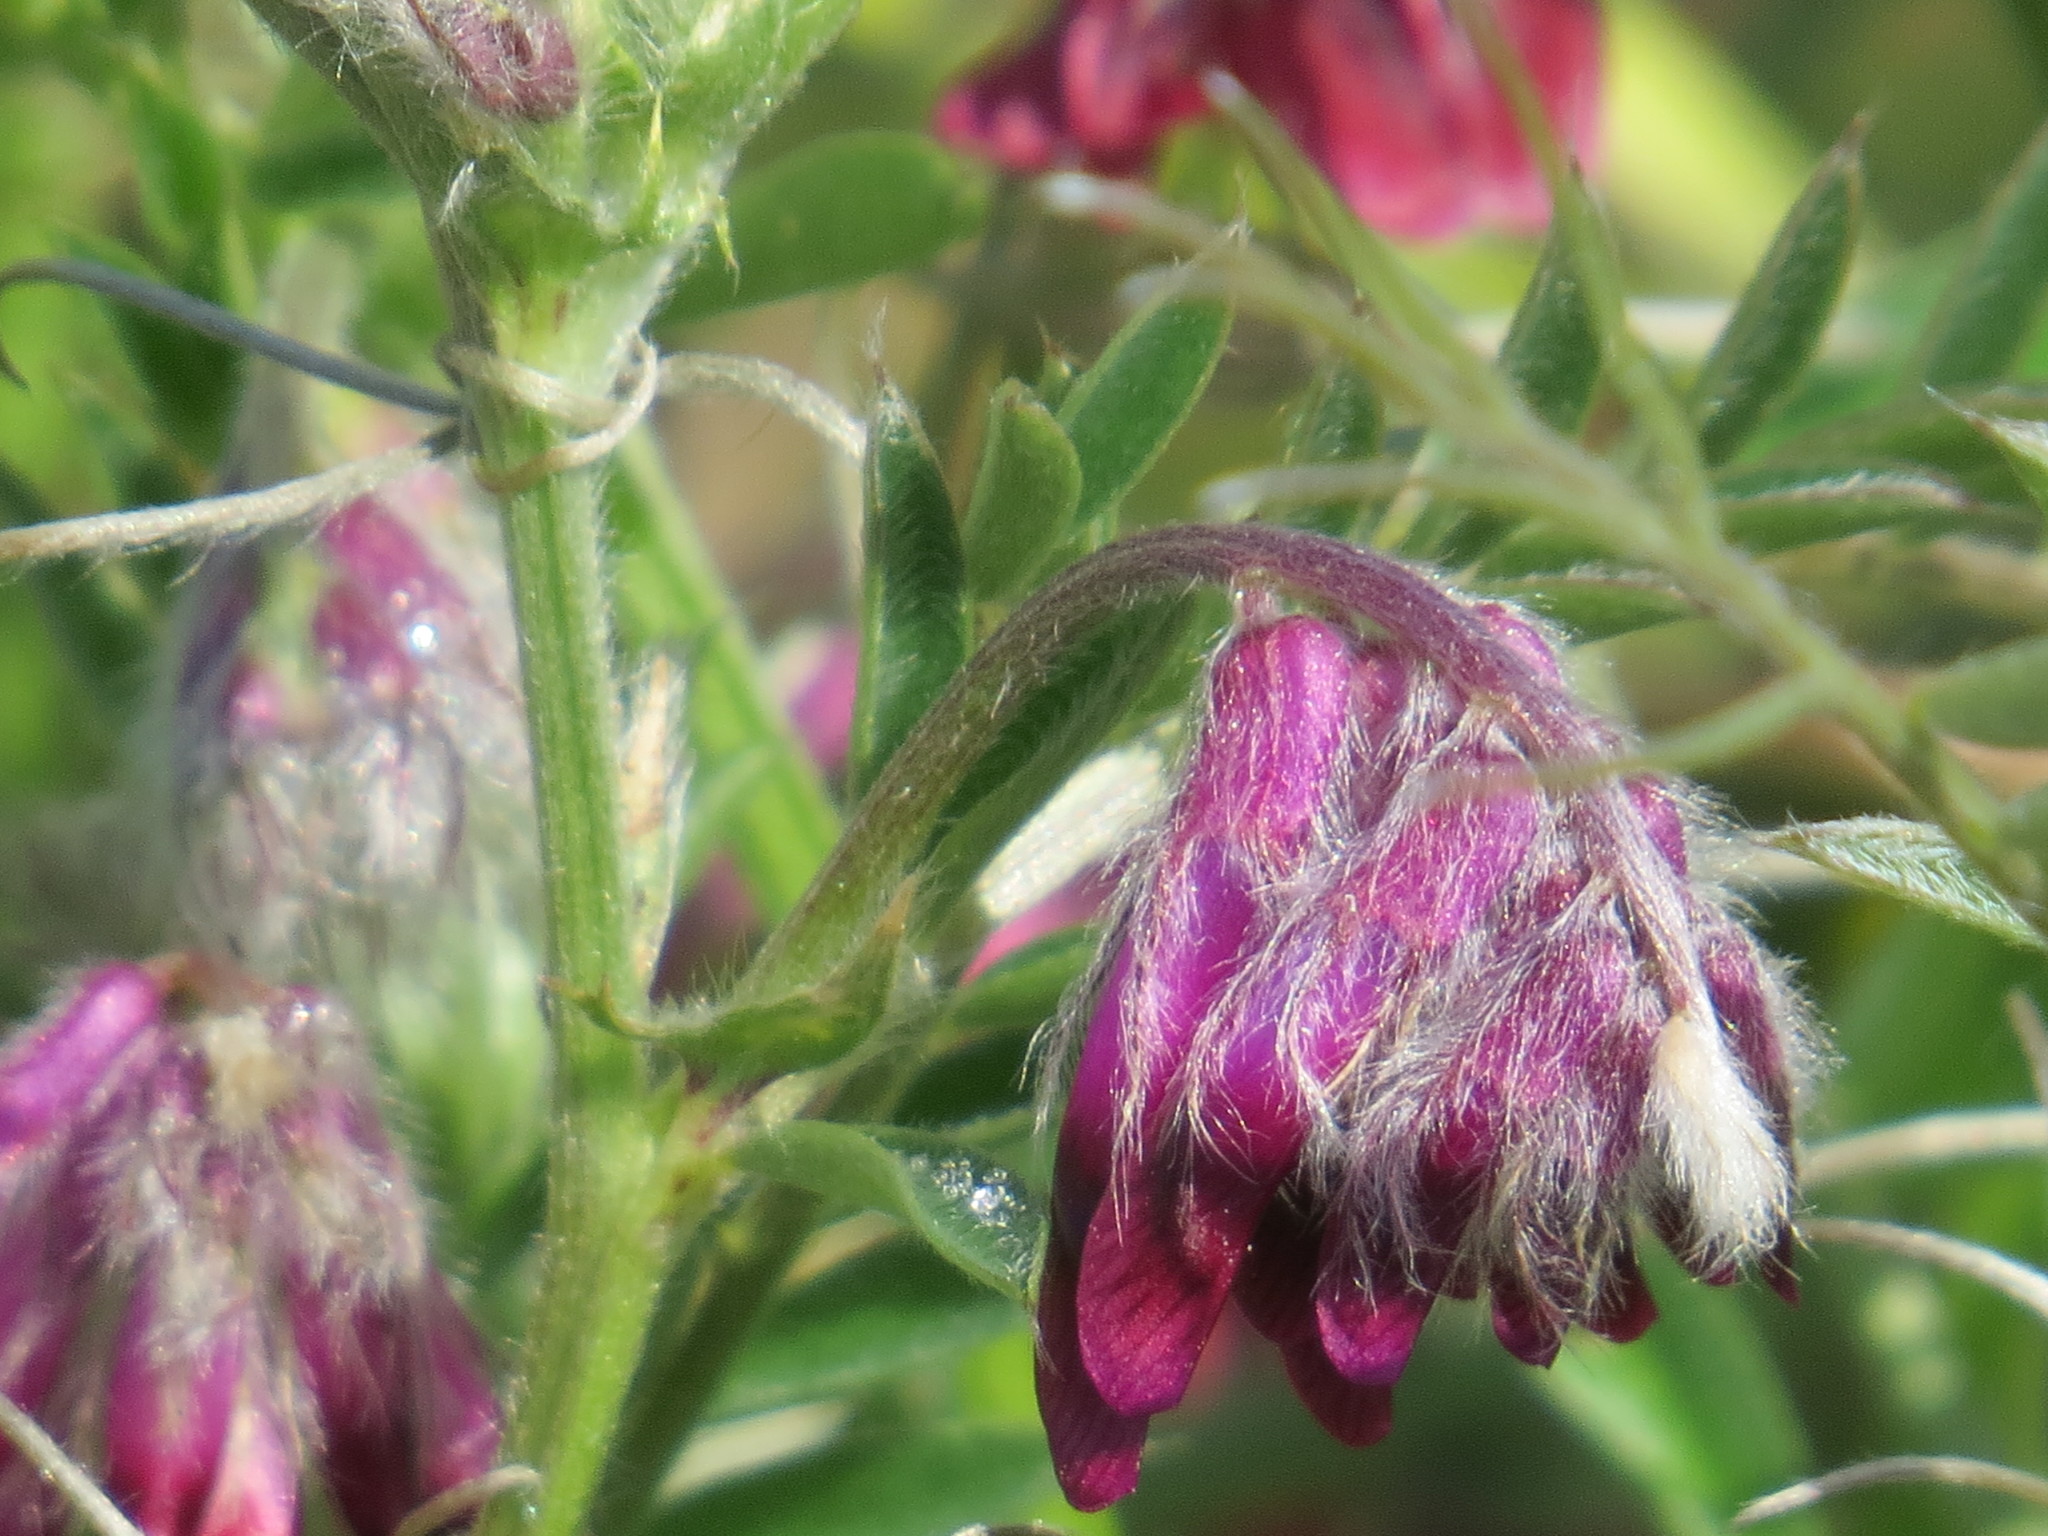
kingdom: Plantae
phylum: Tracheophyta
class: Magnoliopsida
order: Fabales
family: Fabaceae
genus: Vicia
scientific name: Vicia benghalensis
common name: Purple vetch
